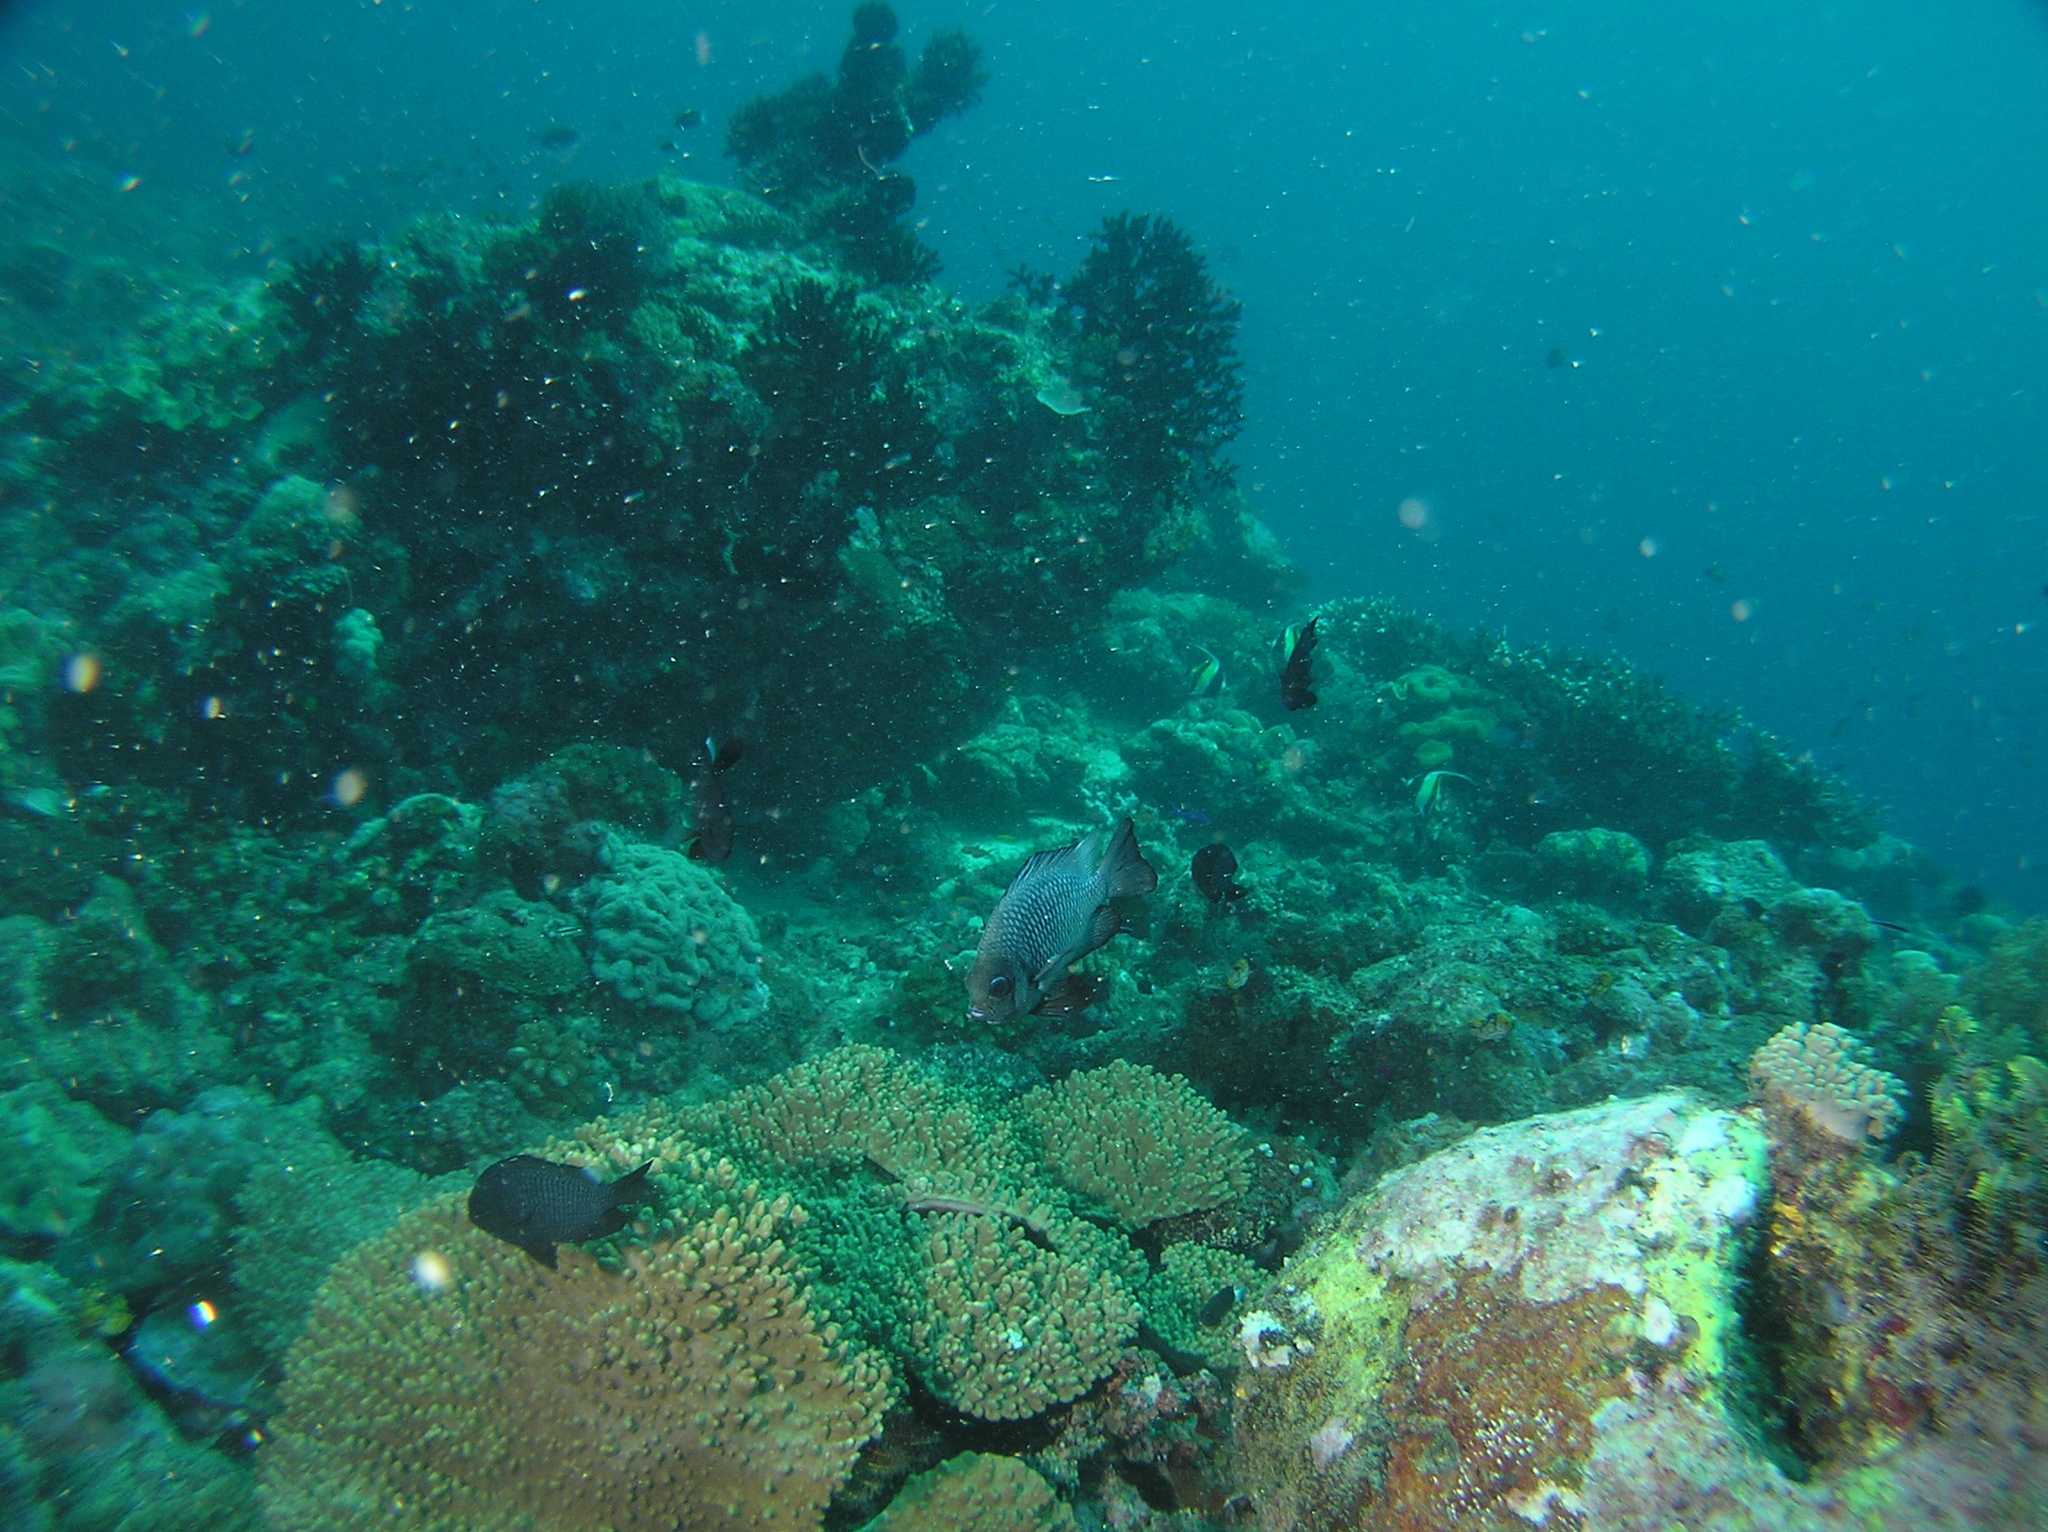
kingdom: Animalia
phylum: Chordata
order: Perciformes
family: Pomacentridae
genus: Dascyllus
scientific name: Dascyllus trimaculatus
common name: Threespot dascyllus
